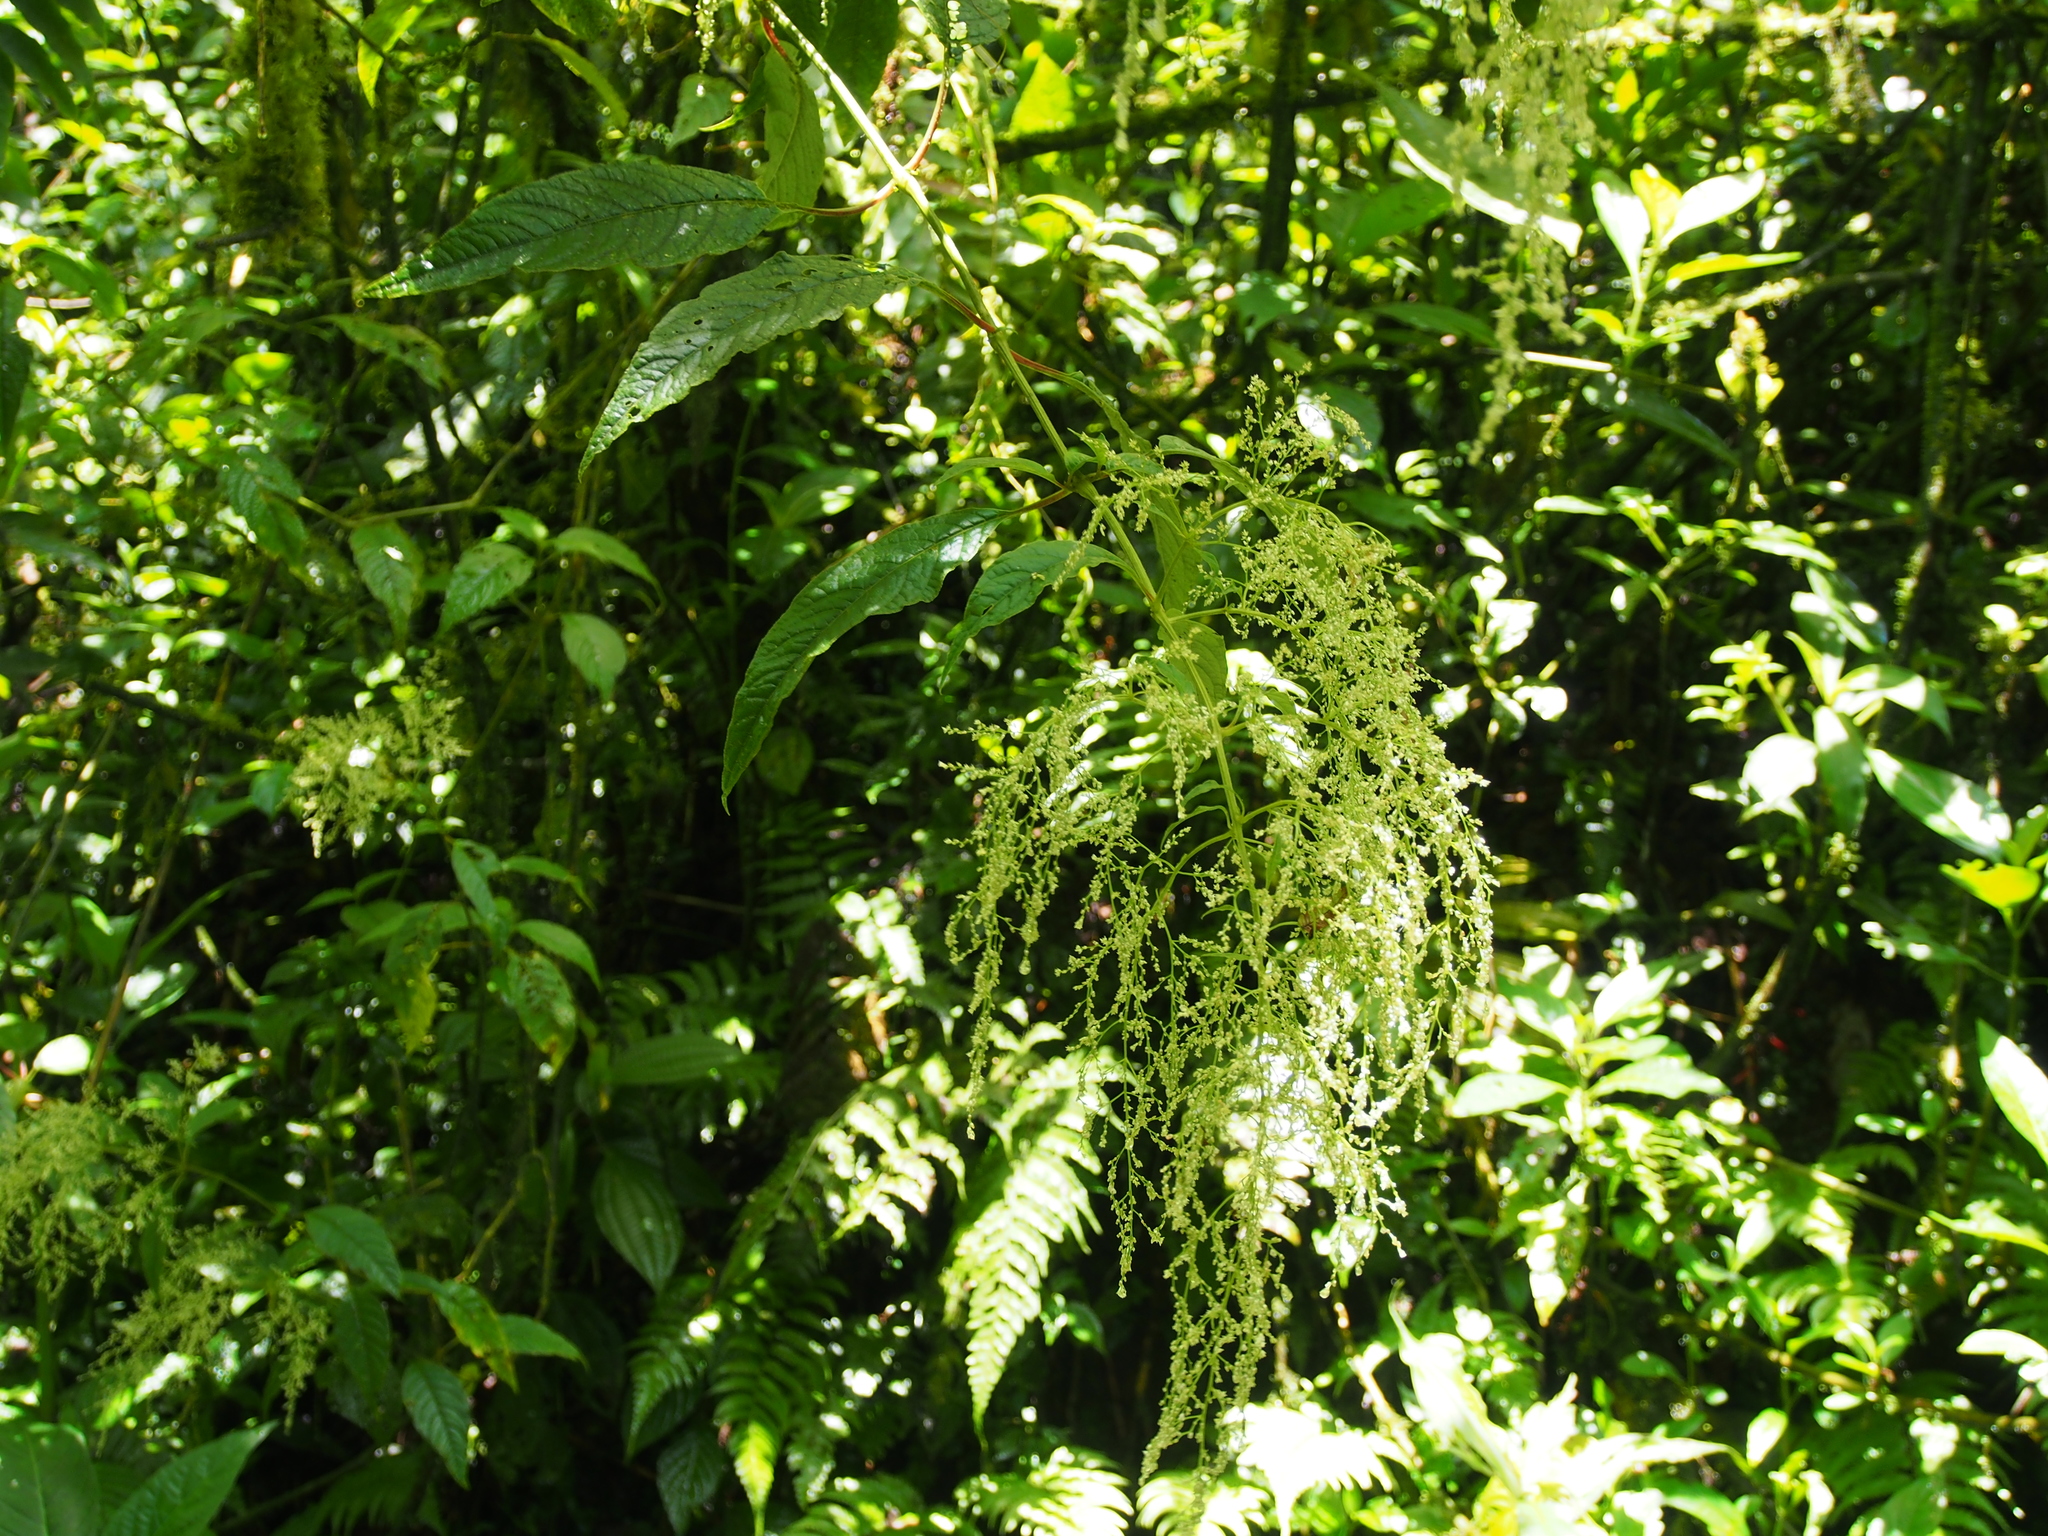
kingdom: Plantae
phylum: Tracheophyta
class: Magnoliopsida
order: Caryophyllales
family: Amaranthaceae
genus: Iresine
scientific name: Iresine diffusa
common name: Juba's-bush
